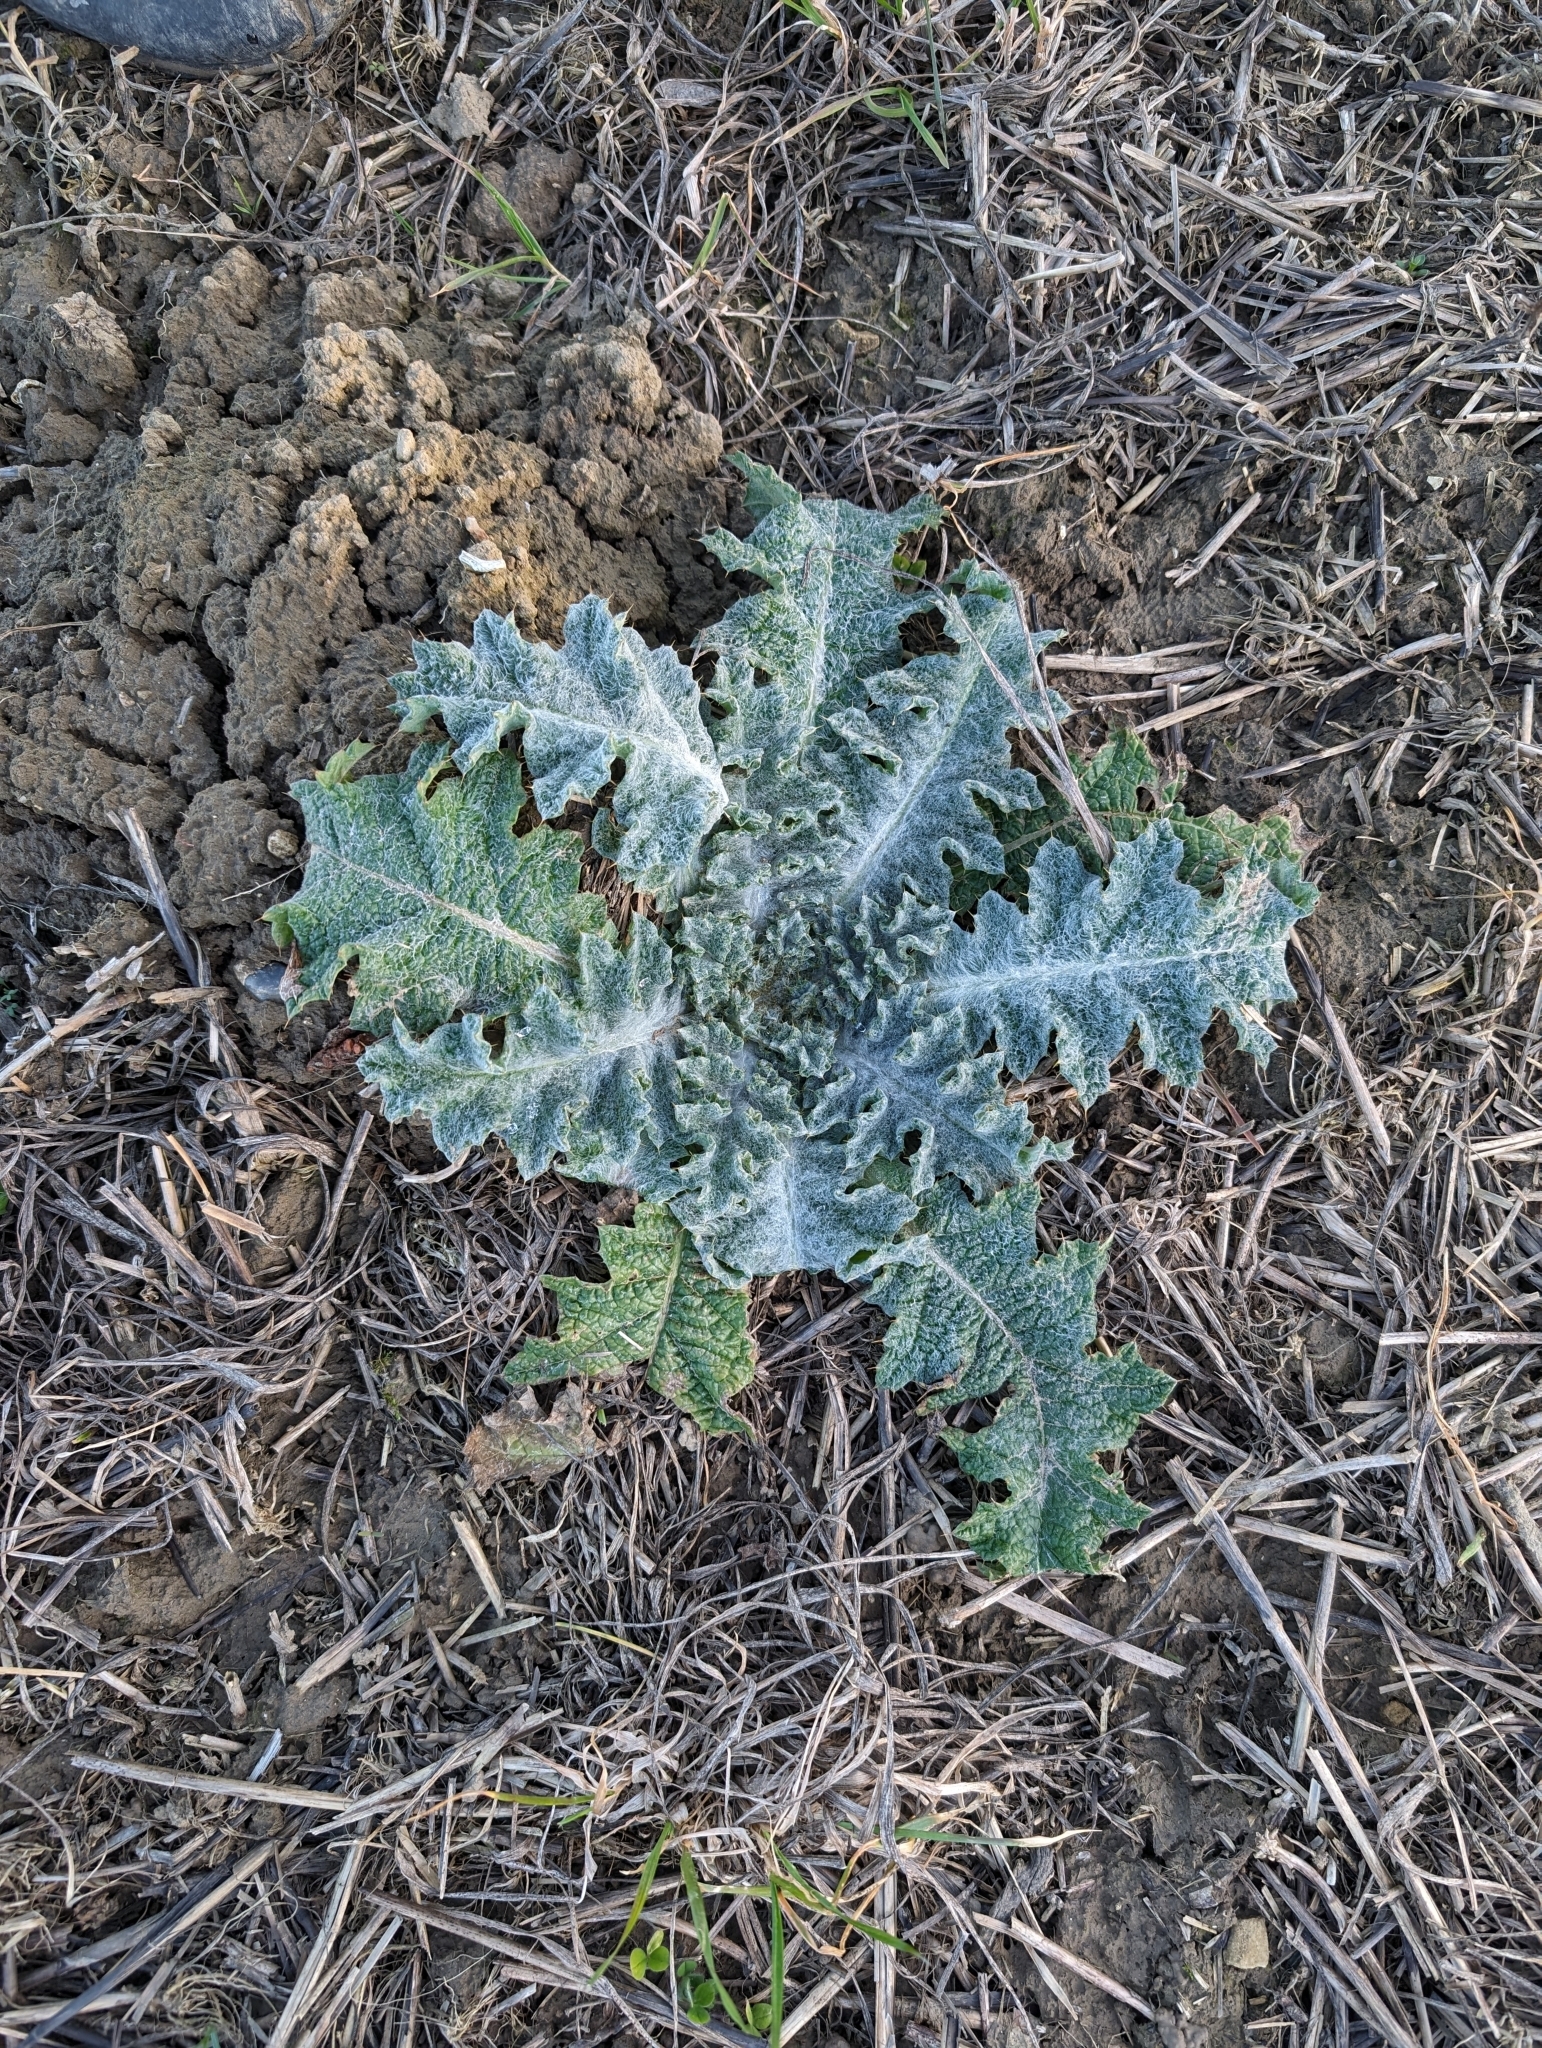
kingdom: Plantae
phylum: Tracheophyta
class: Magnoliopsida
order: Asterales
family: Asteraceae
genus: Onopordum
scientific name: Onopordum acanthium
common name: Scotch thistle
